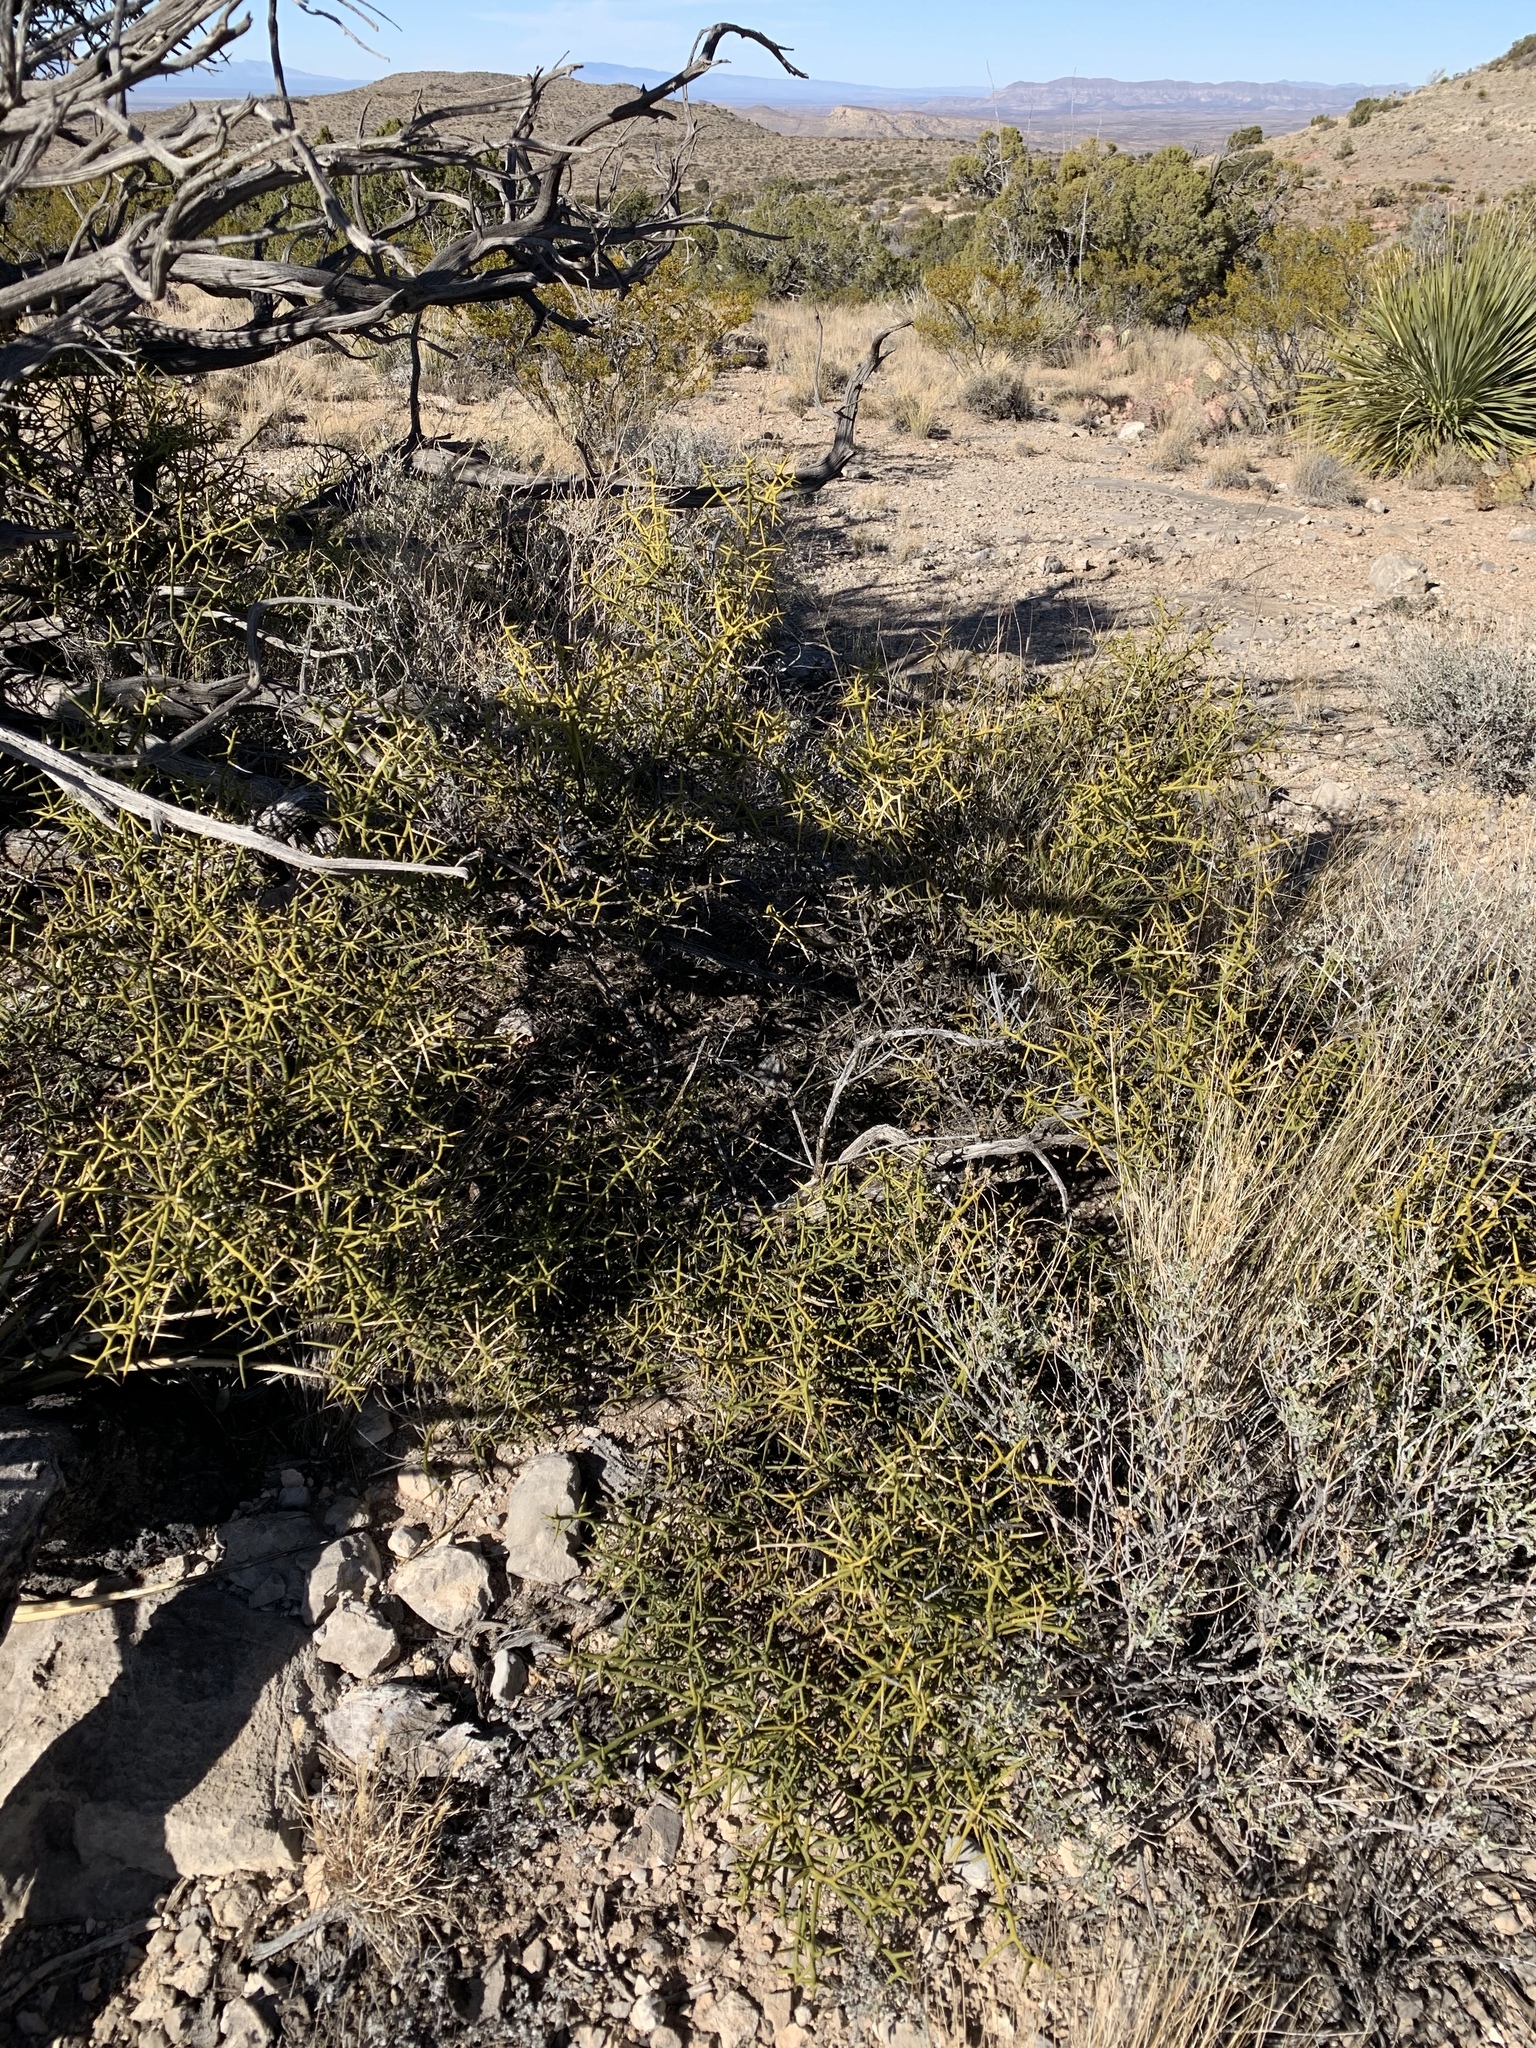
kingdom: Plantae
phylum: Tracheophyta
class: Magnoliopsida
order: Brassicales
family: Koeberliniaceae
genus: Koeberlinia
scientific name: Koeberlinia spinosa
